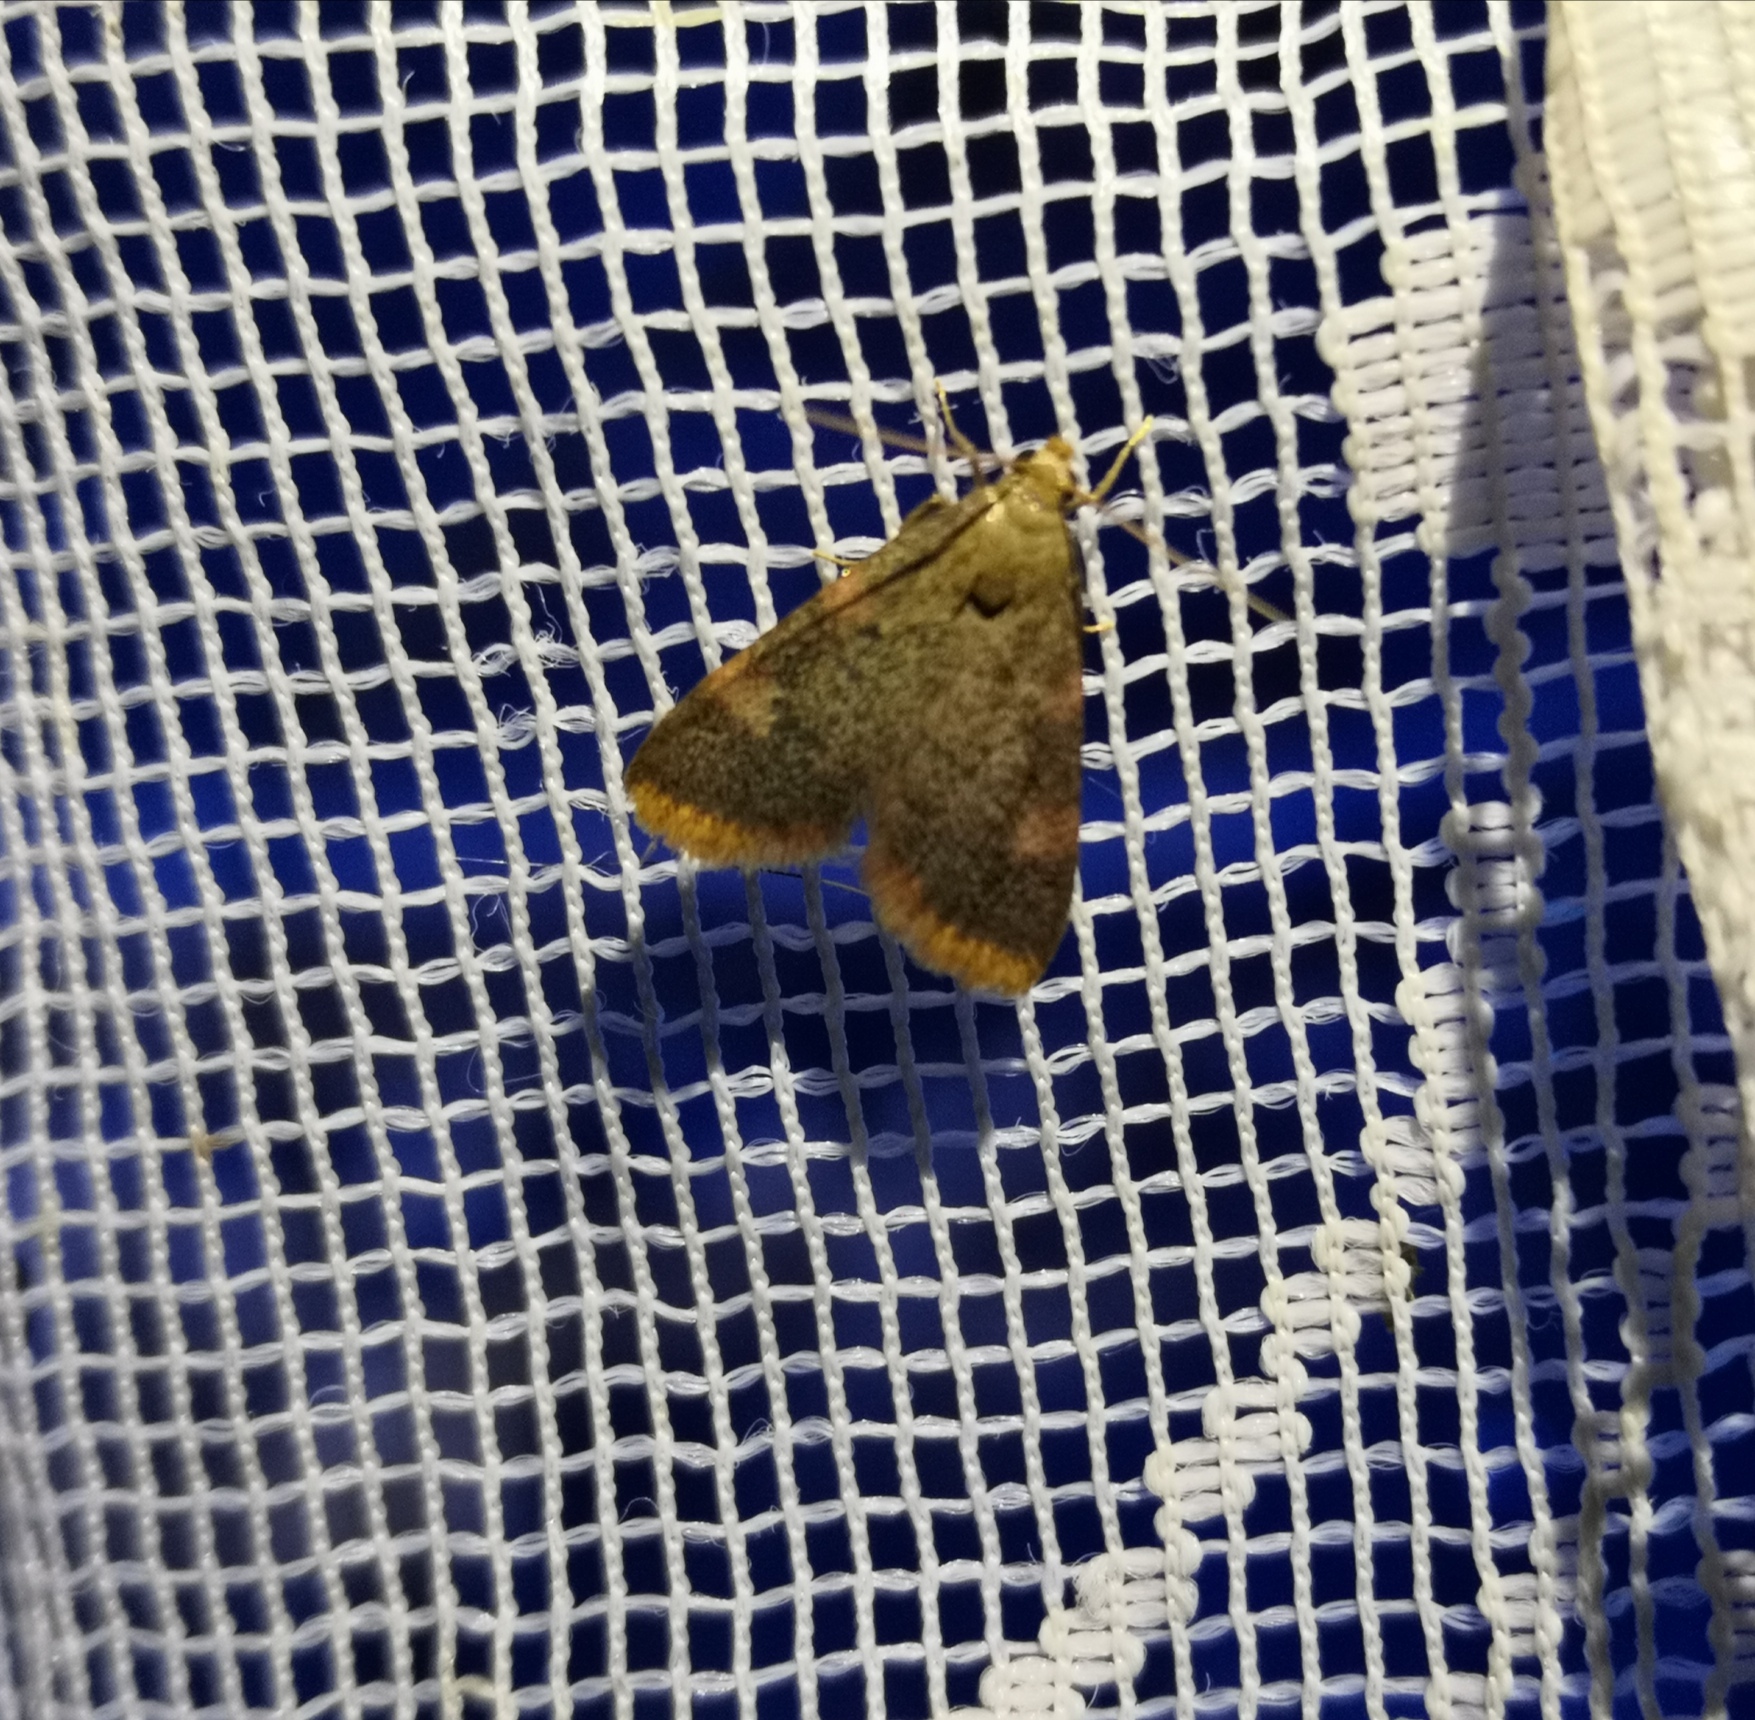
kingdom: Animalia
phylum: Arthropoda
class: Insecta
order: Lepidoptera
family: Pyralidae
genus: Hypsopygia
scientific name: Hypsopygia costalis
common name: Gold triangle
